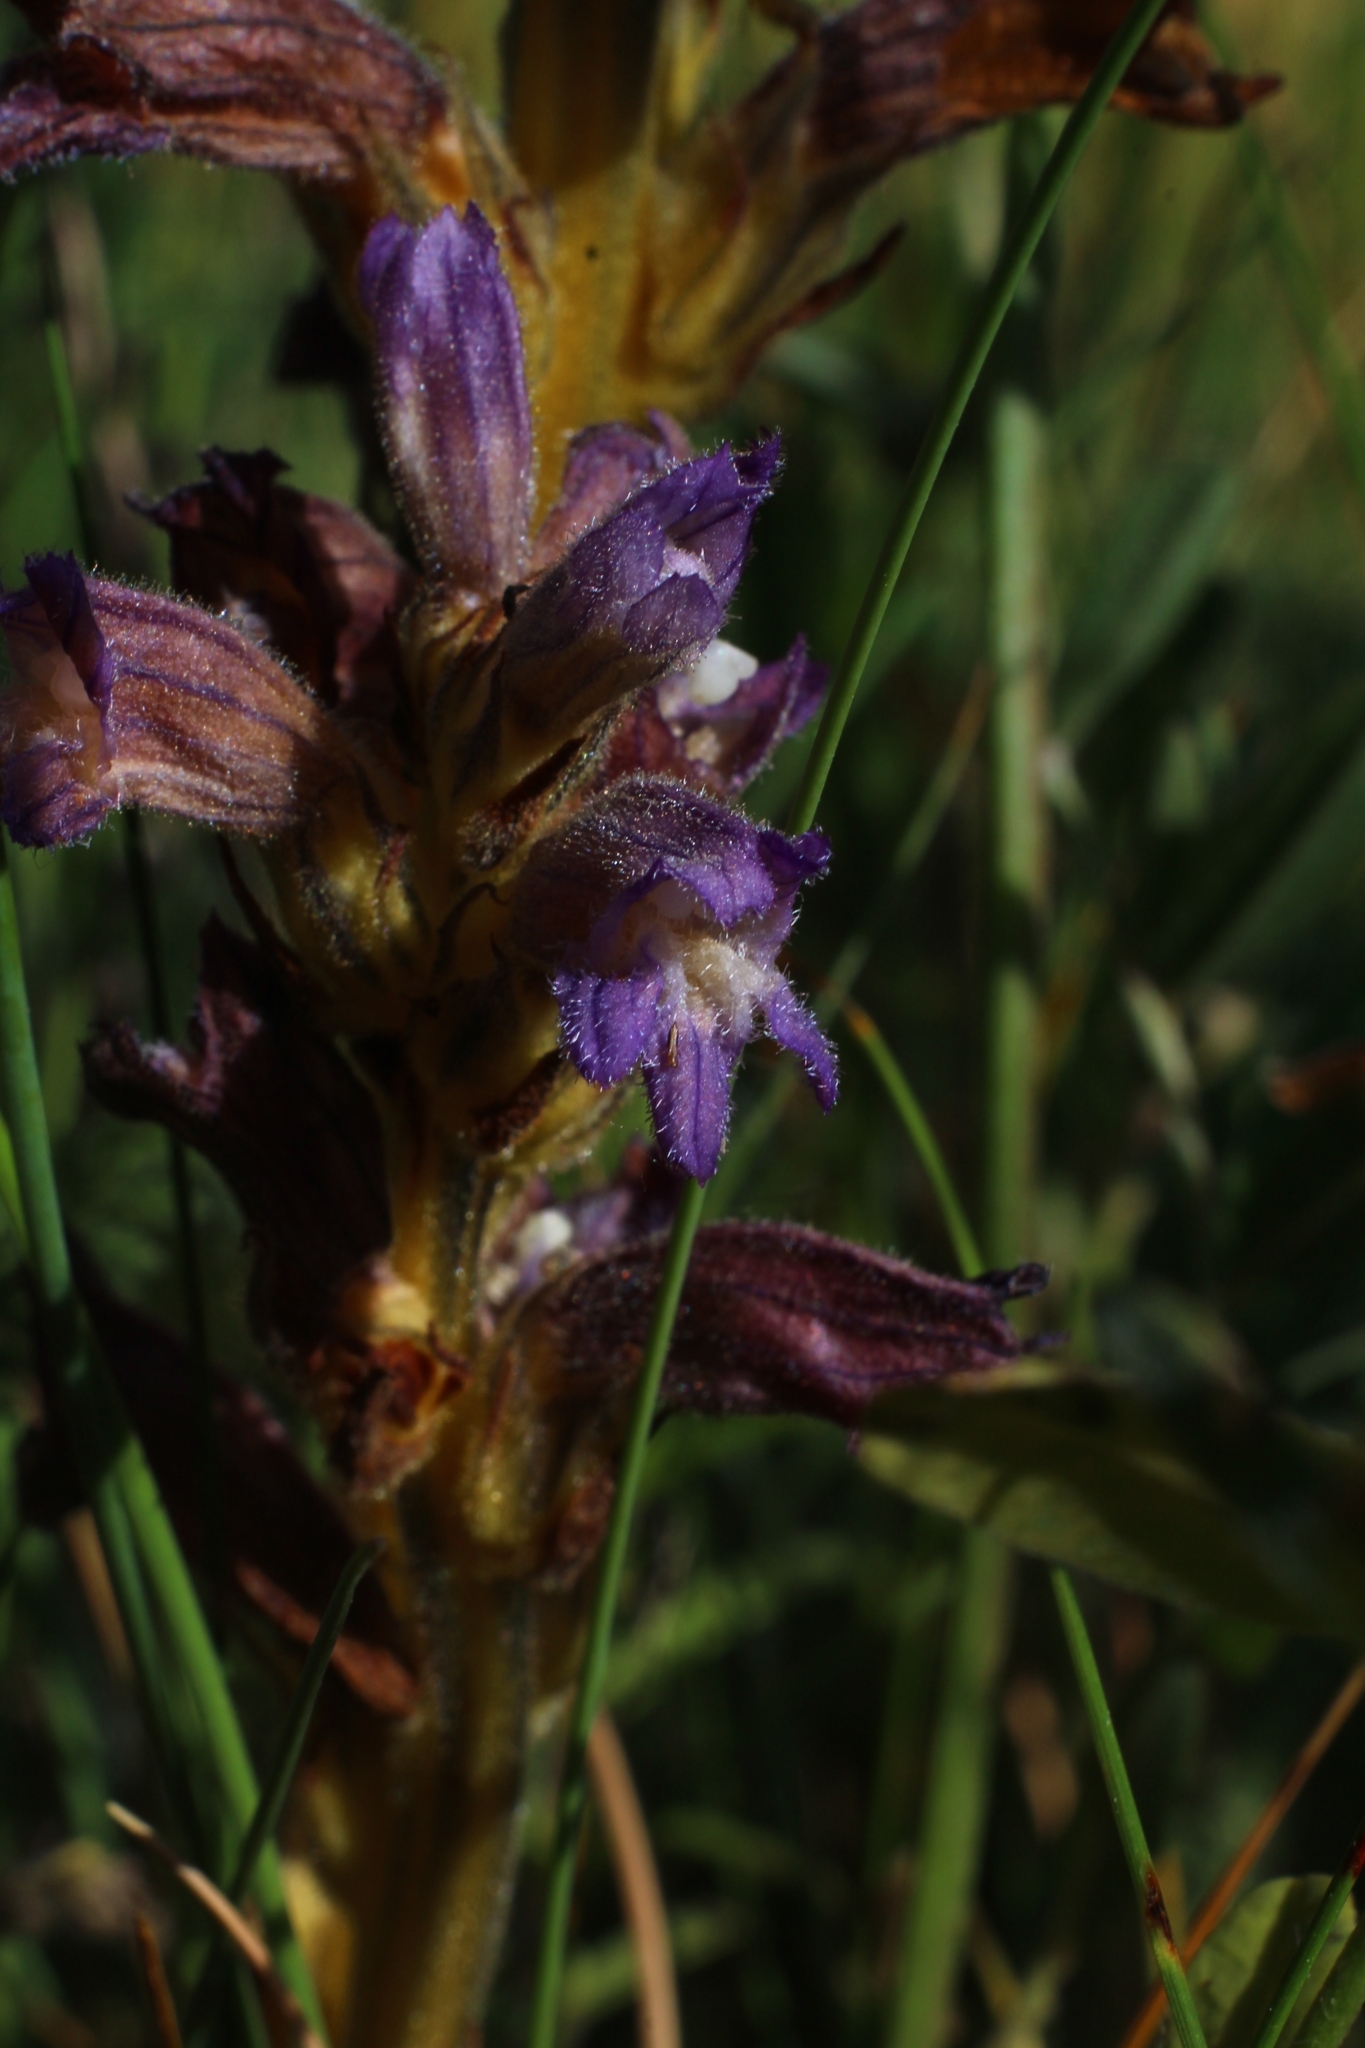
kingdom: Plantae
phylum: Tracheophyta
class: Magnoliopsida
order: Lamiales
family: Orobanchaceae
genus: Phelipanche
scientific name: Phelipanche purpurea
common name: Purple broomrape
